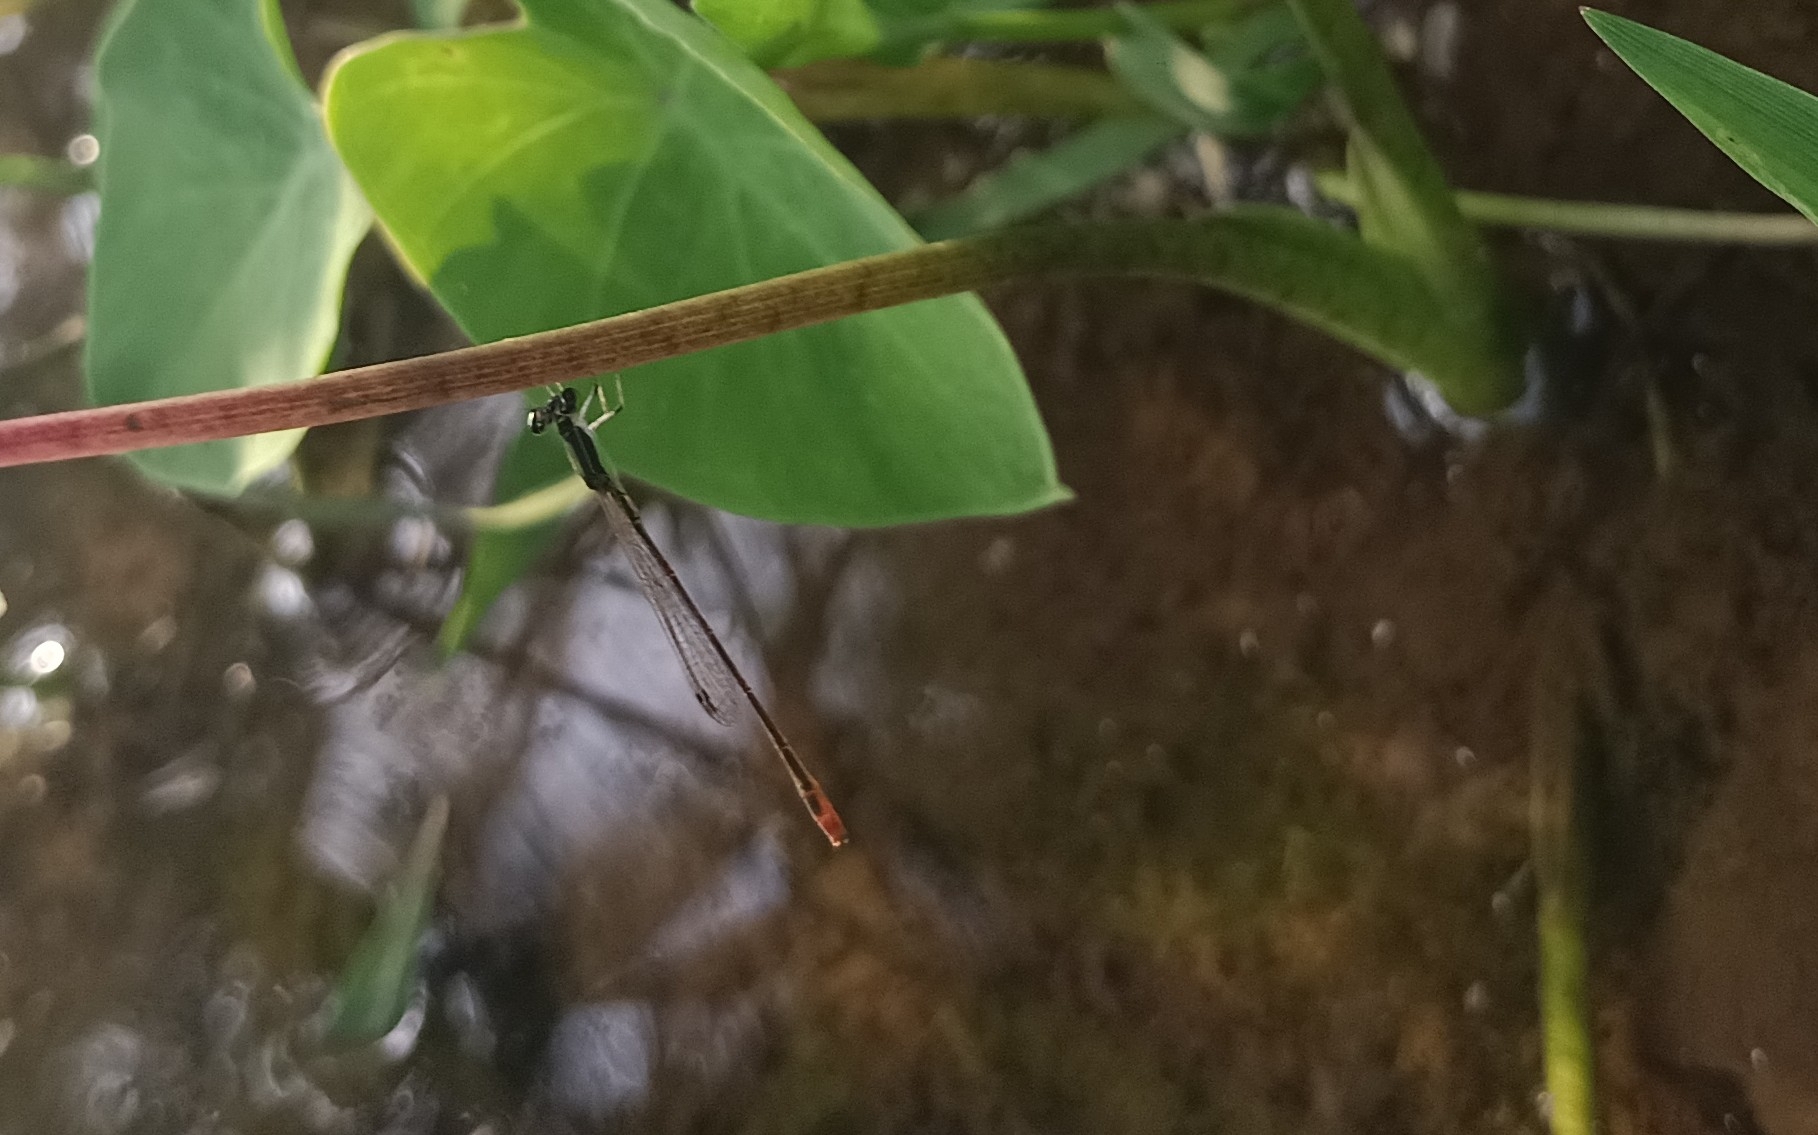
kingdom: Animalia
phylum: Arthropoda
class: Insecta
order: Odonata
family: Coenagrionidae
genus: Agriocnemis
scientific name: Agriocnemis pygmaea
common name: Pygmy wisp
